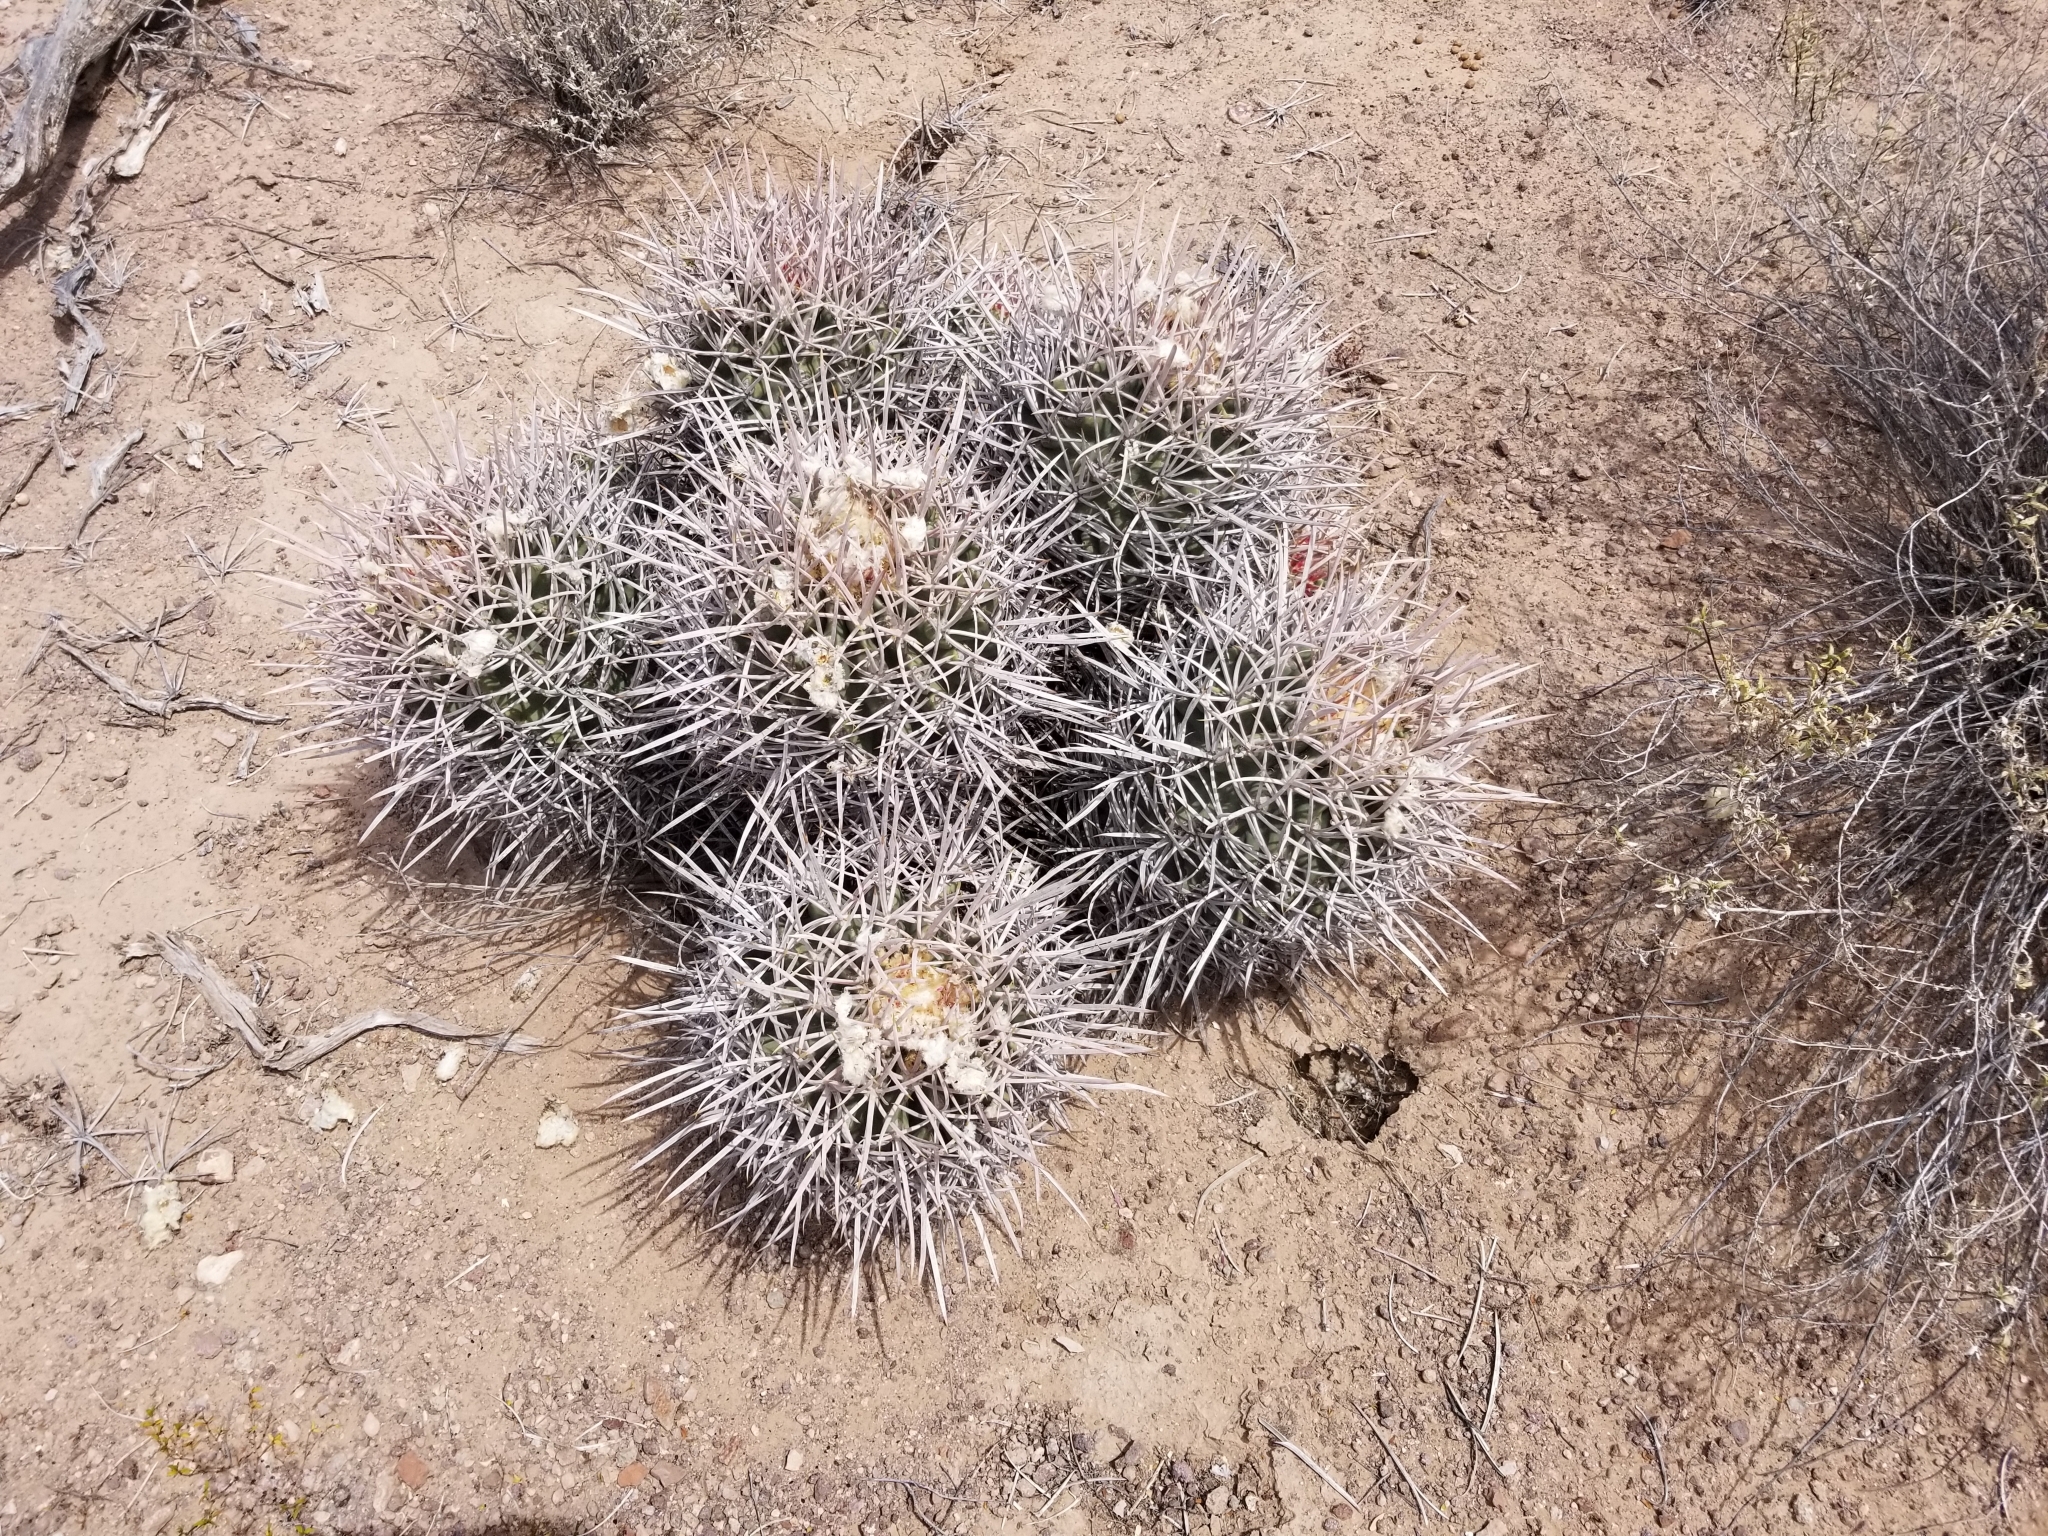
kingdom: Plantae
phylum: Tracheophyta
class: Magnoliopsida
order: Caryophyllales
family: Cactaceae
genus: Echinocactus
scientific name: Echinocactus polycephalus
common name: Cottontop cactus
